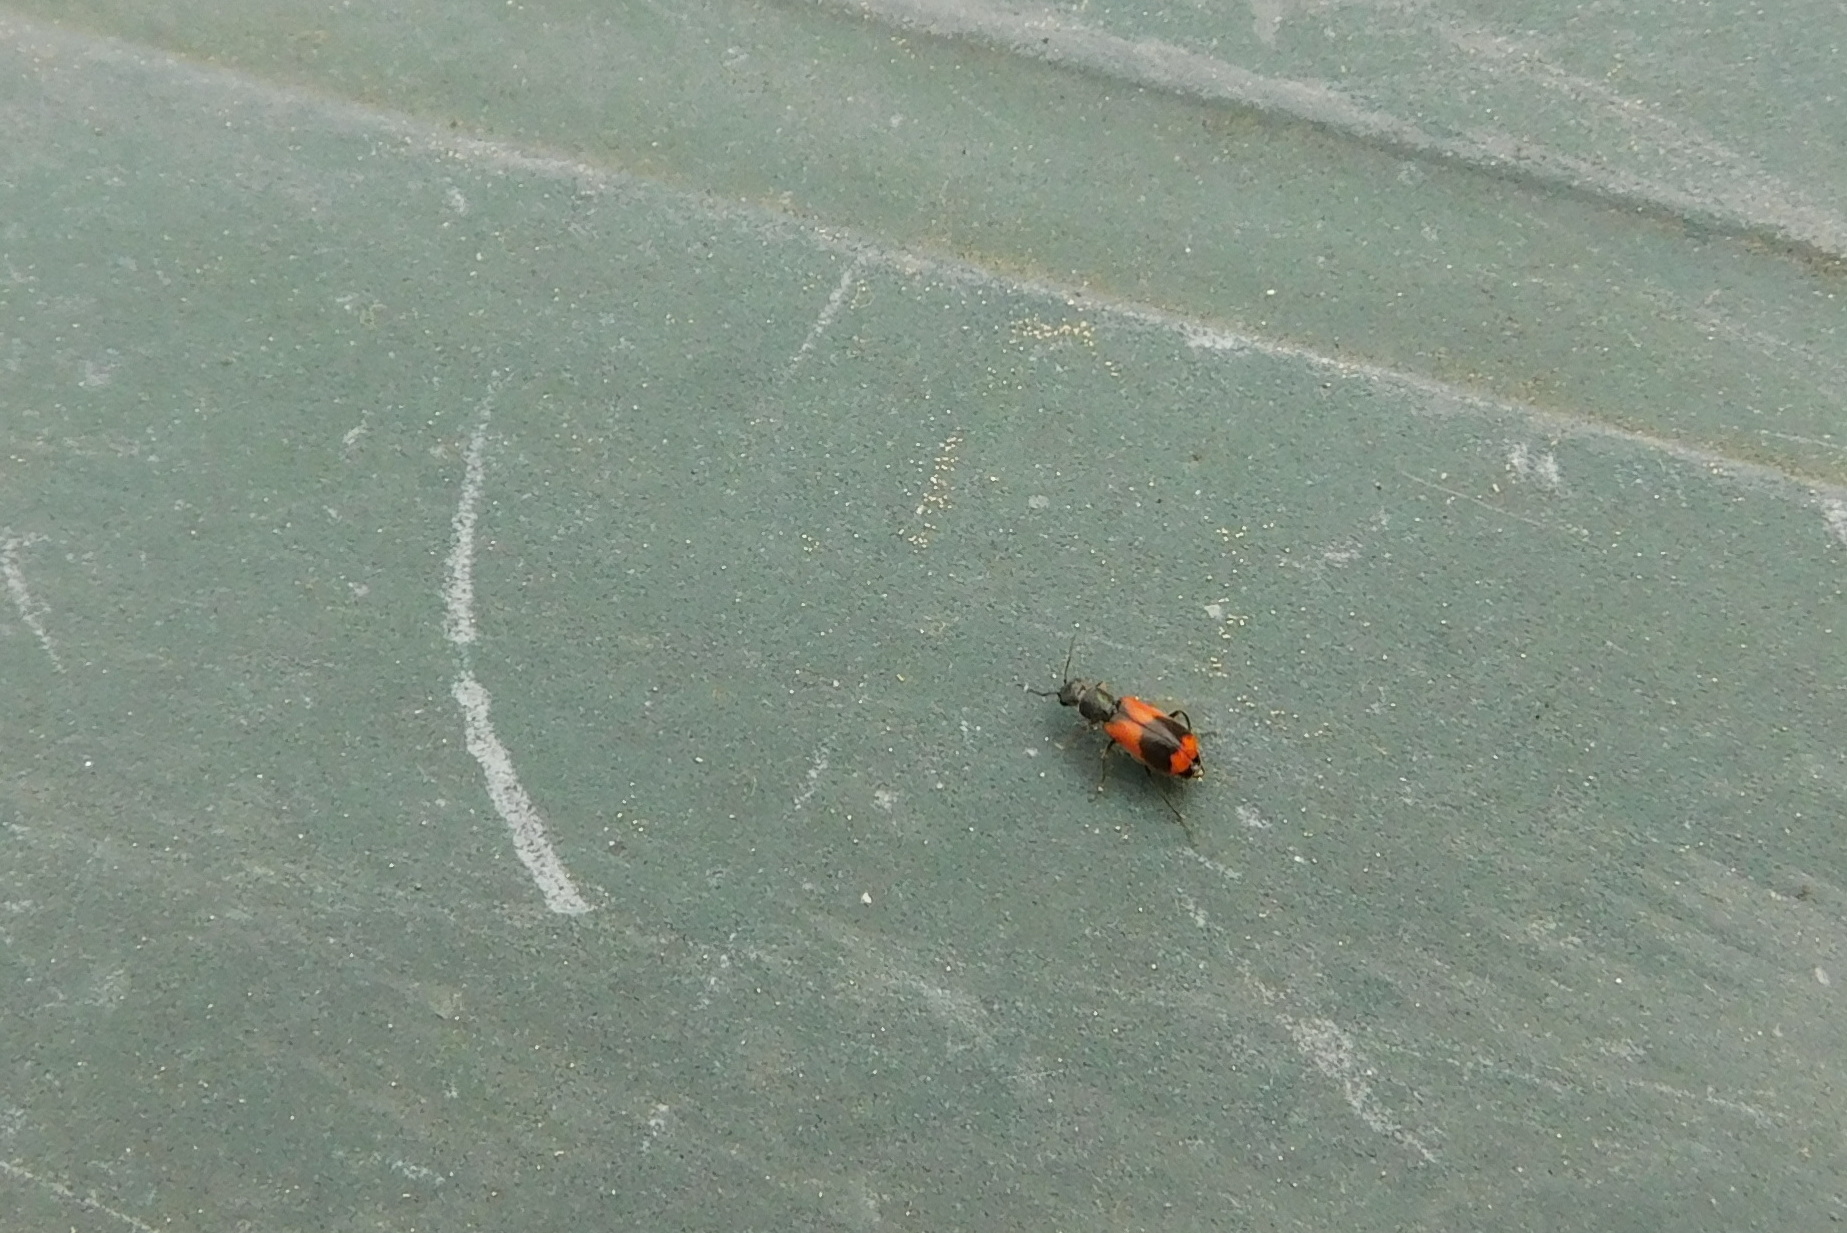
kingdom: Animalia
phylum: Arthropoda
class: Insecta
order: Coleoptera
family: Melyridae
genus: Anthocomus
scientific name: Anthocomus equestris
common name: Black-banded soft-winged flower beetle
